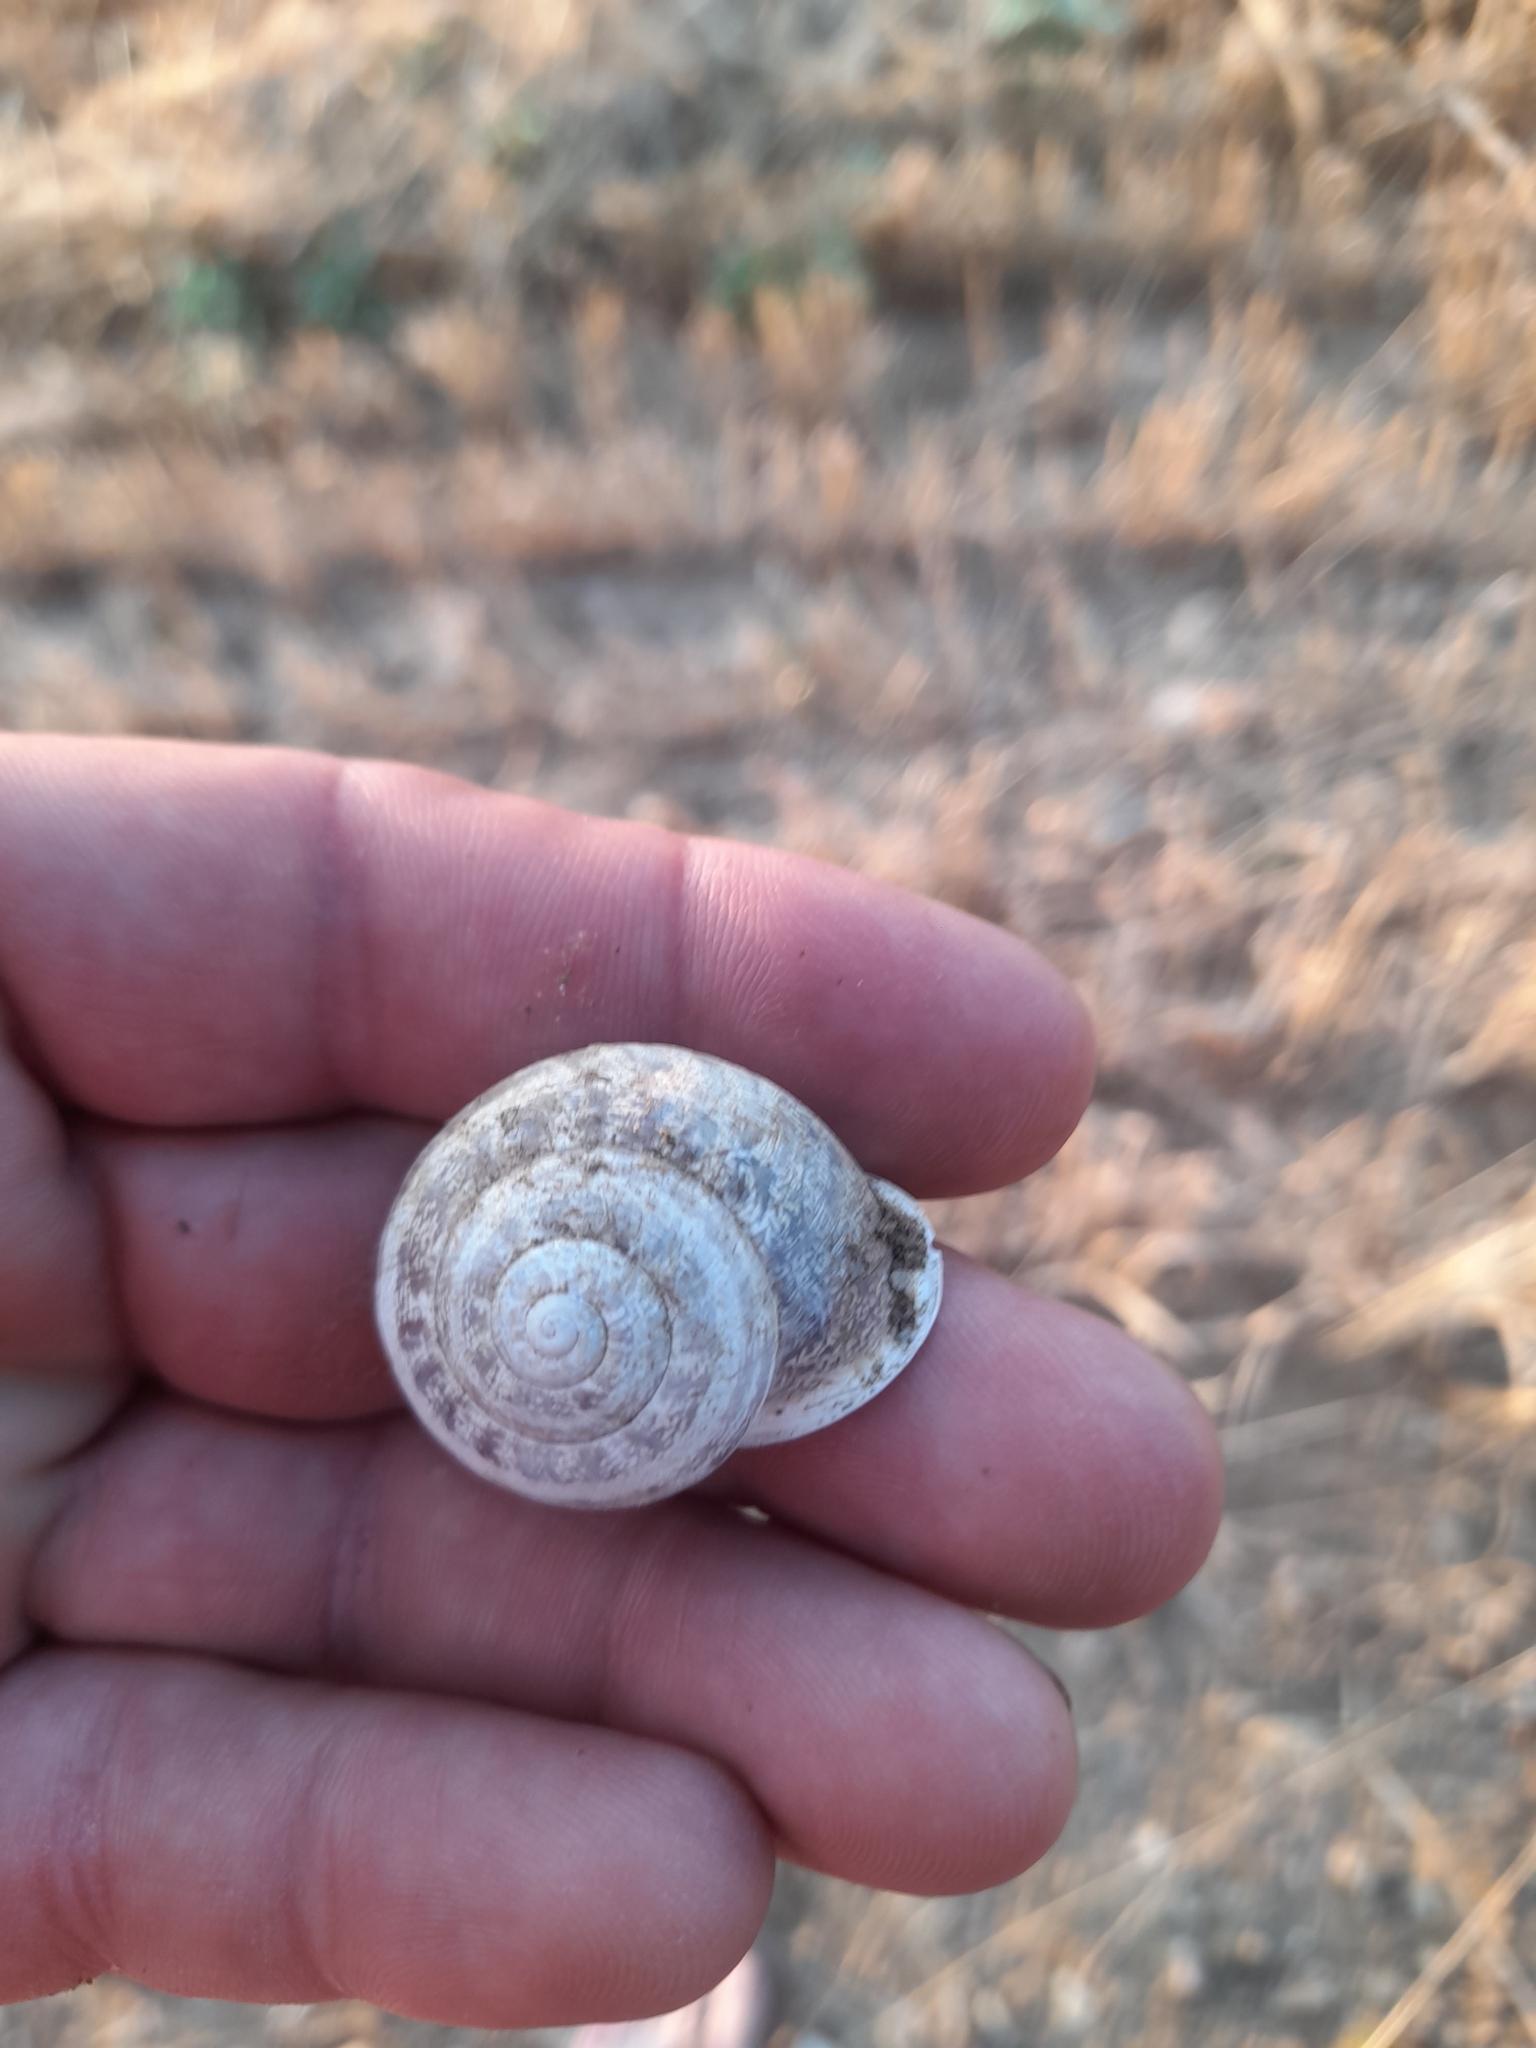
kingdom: Animalia
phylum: Mollusca
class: Gastropoda
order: Stylommatophora
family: Helicidae
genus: Eobania
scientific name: Eobania vermiculata
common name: Chocolateband snail
